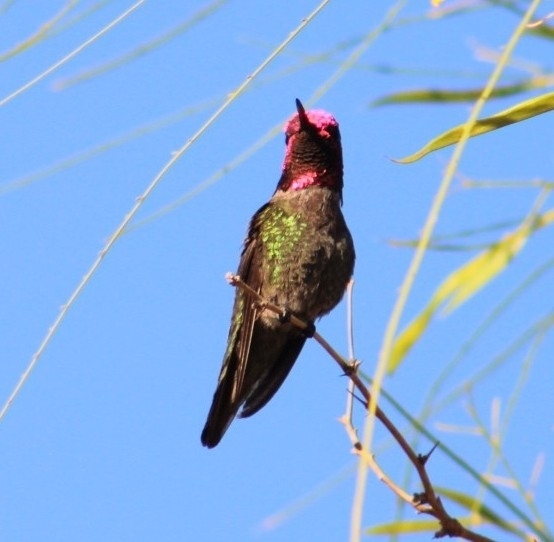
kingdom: Animalia
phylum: Chordata
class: Aves
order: Apodiformes
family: Trochilidae
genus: Calypte
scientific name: Calypte anna
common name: Anna's hummingbird
